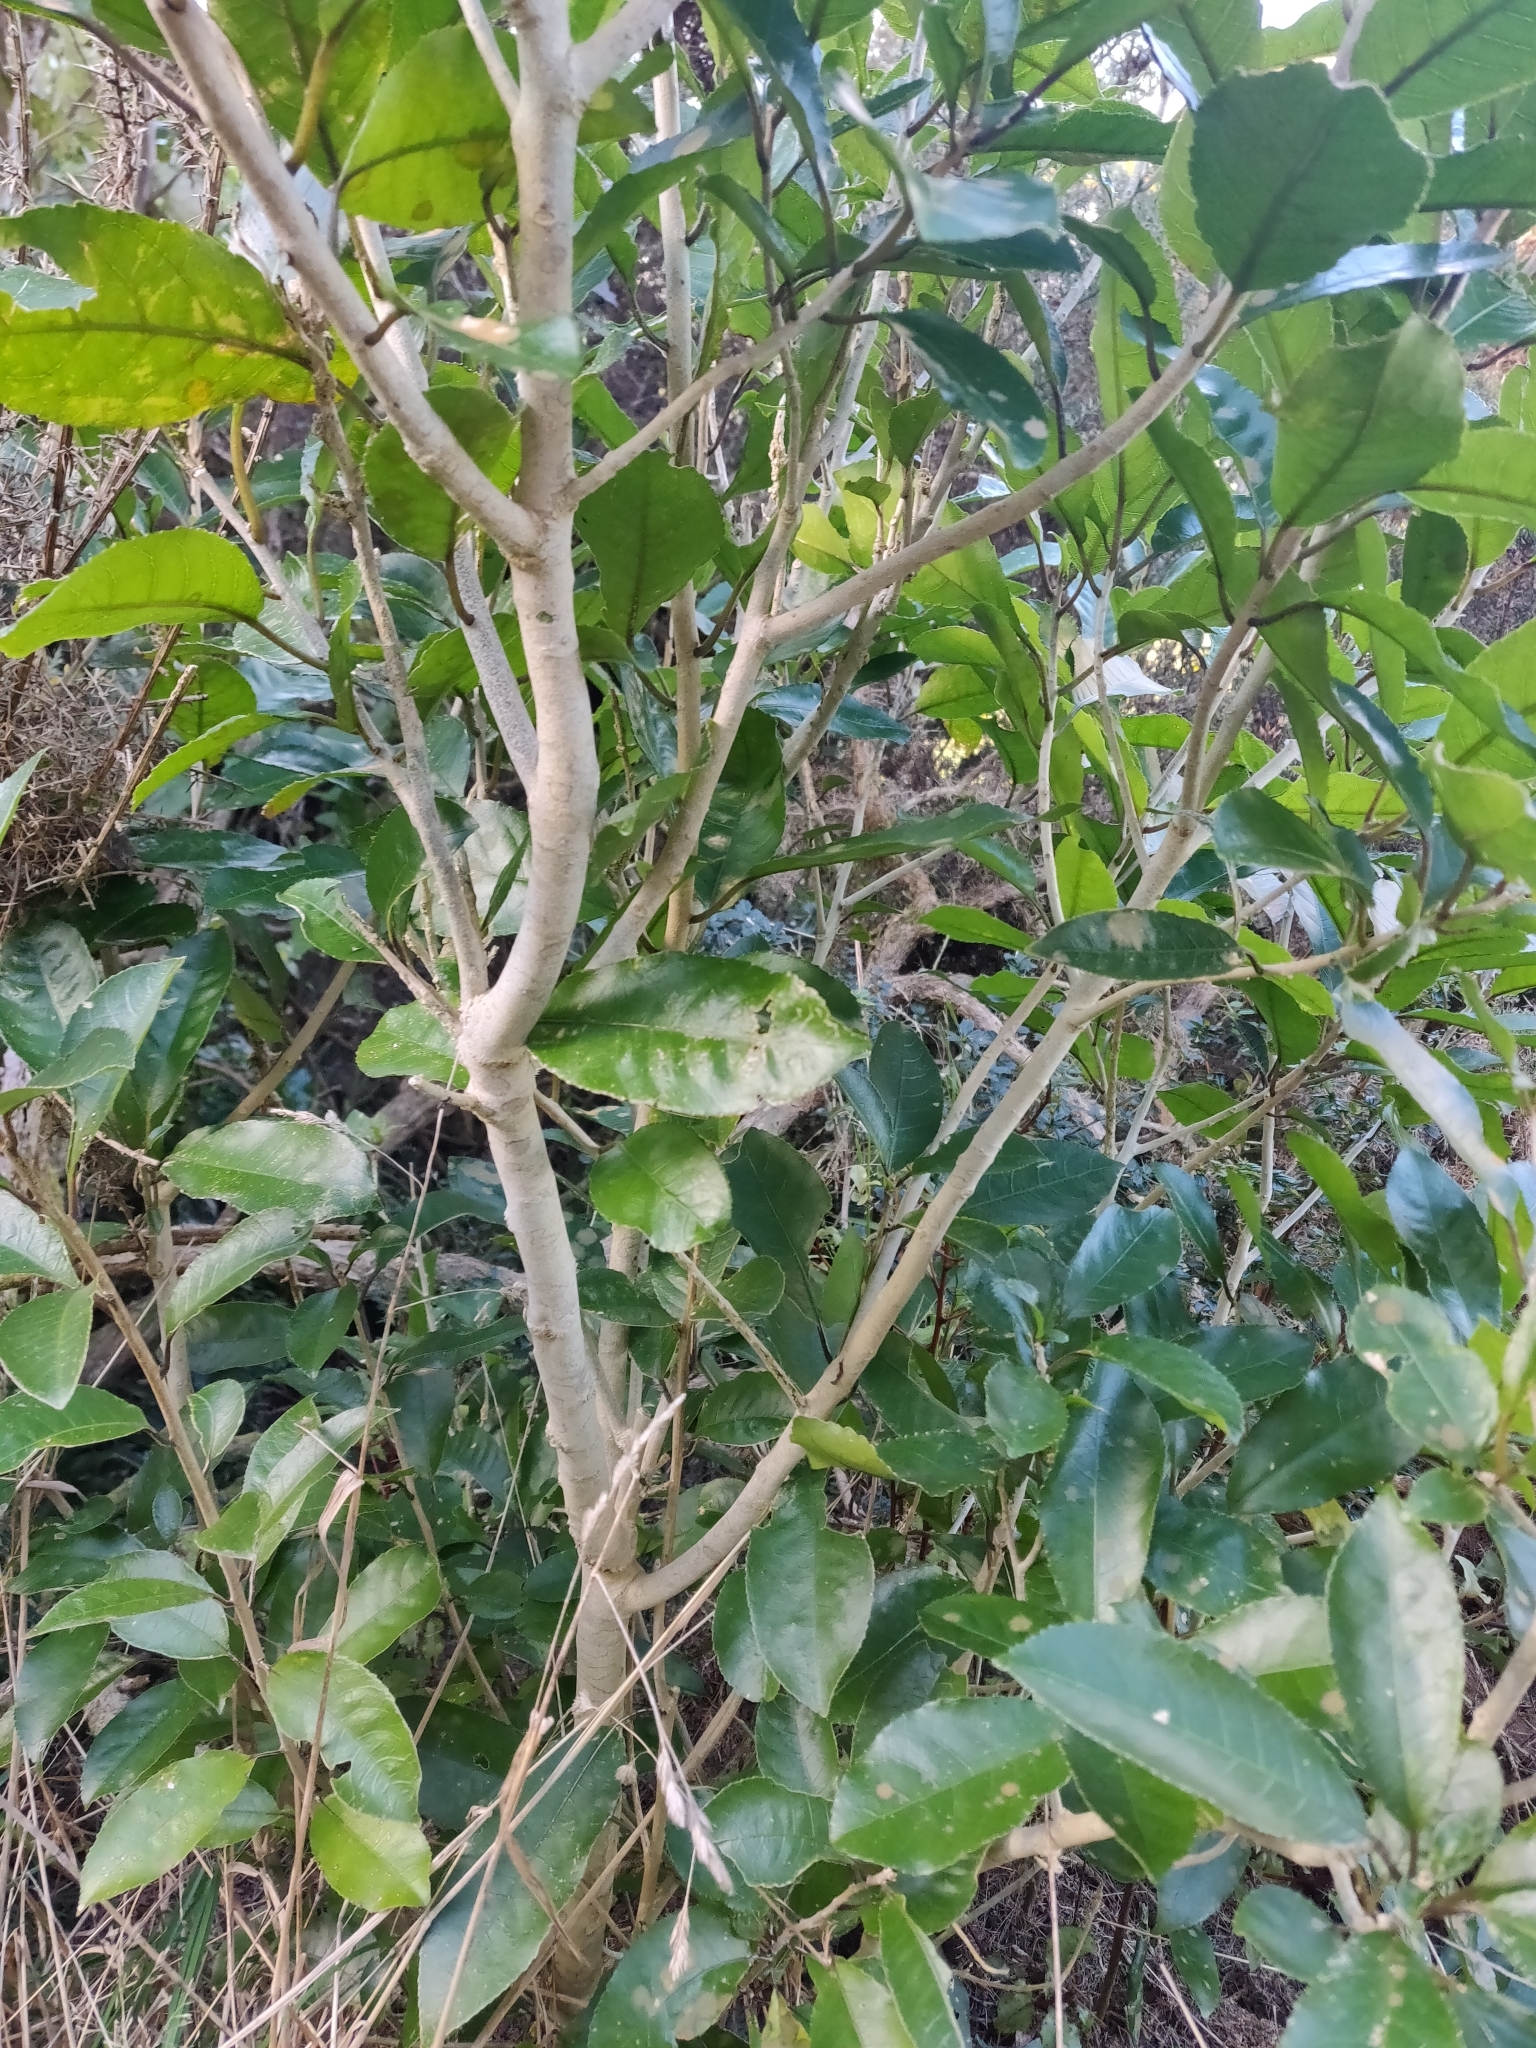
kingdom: Plantae
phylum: Tracheophyta
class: Magnoliopsida
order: Malpighiales
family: Violaceae
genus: Melicytus
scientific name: Melicytus ramiflorus
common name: Mahoe
